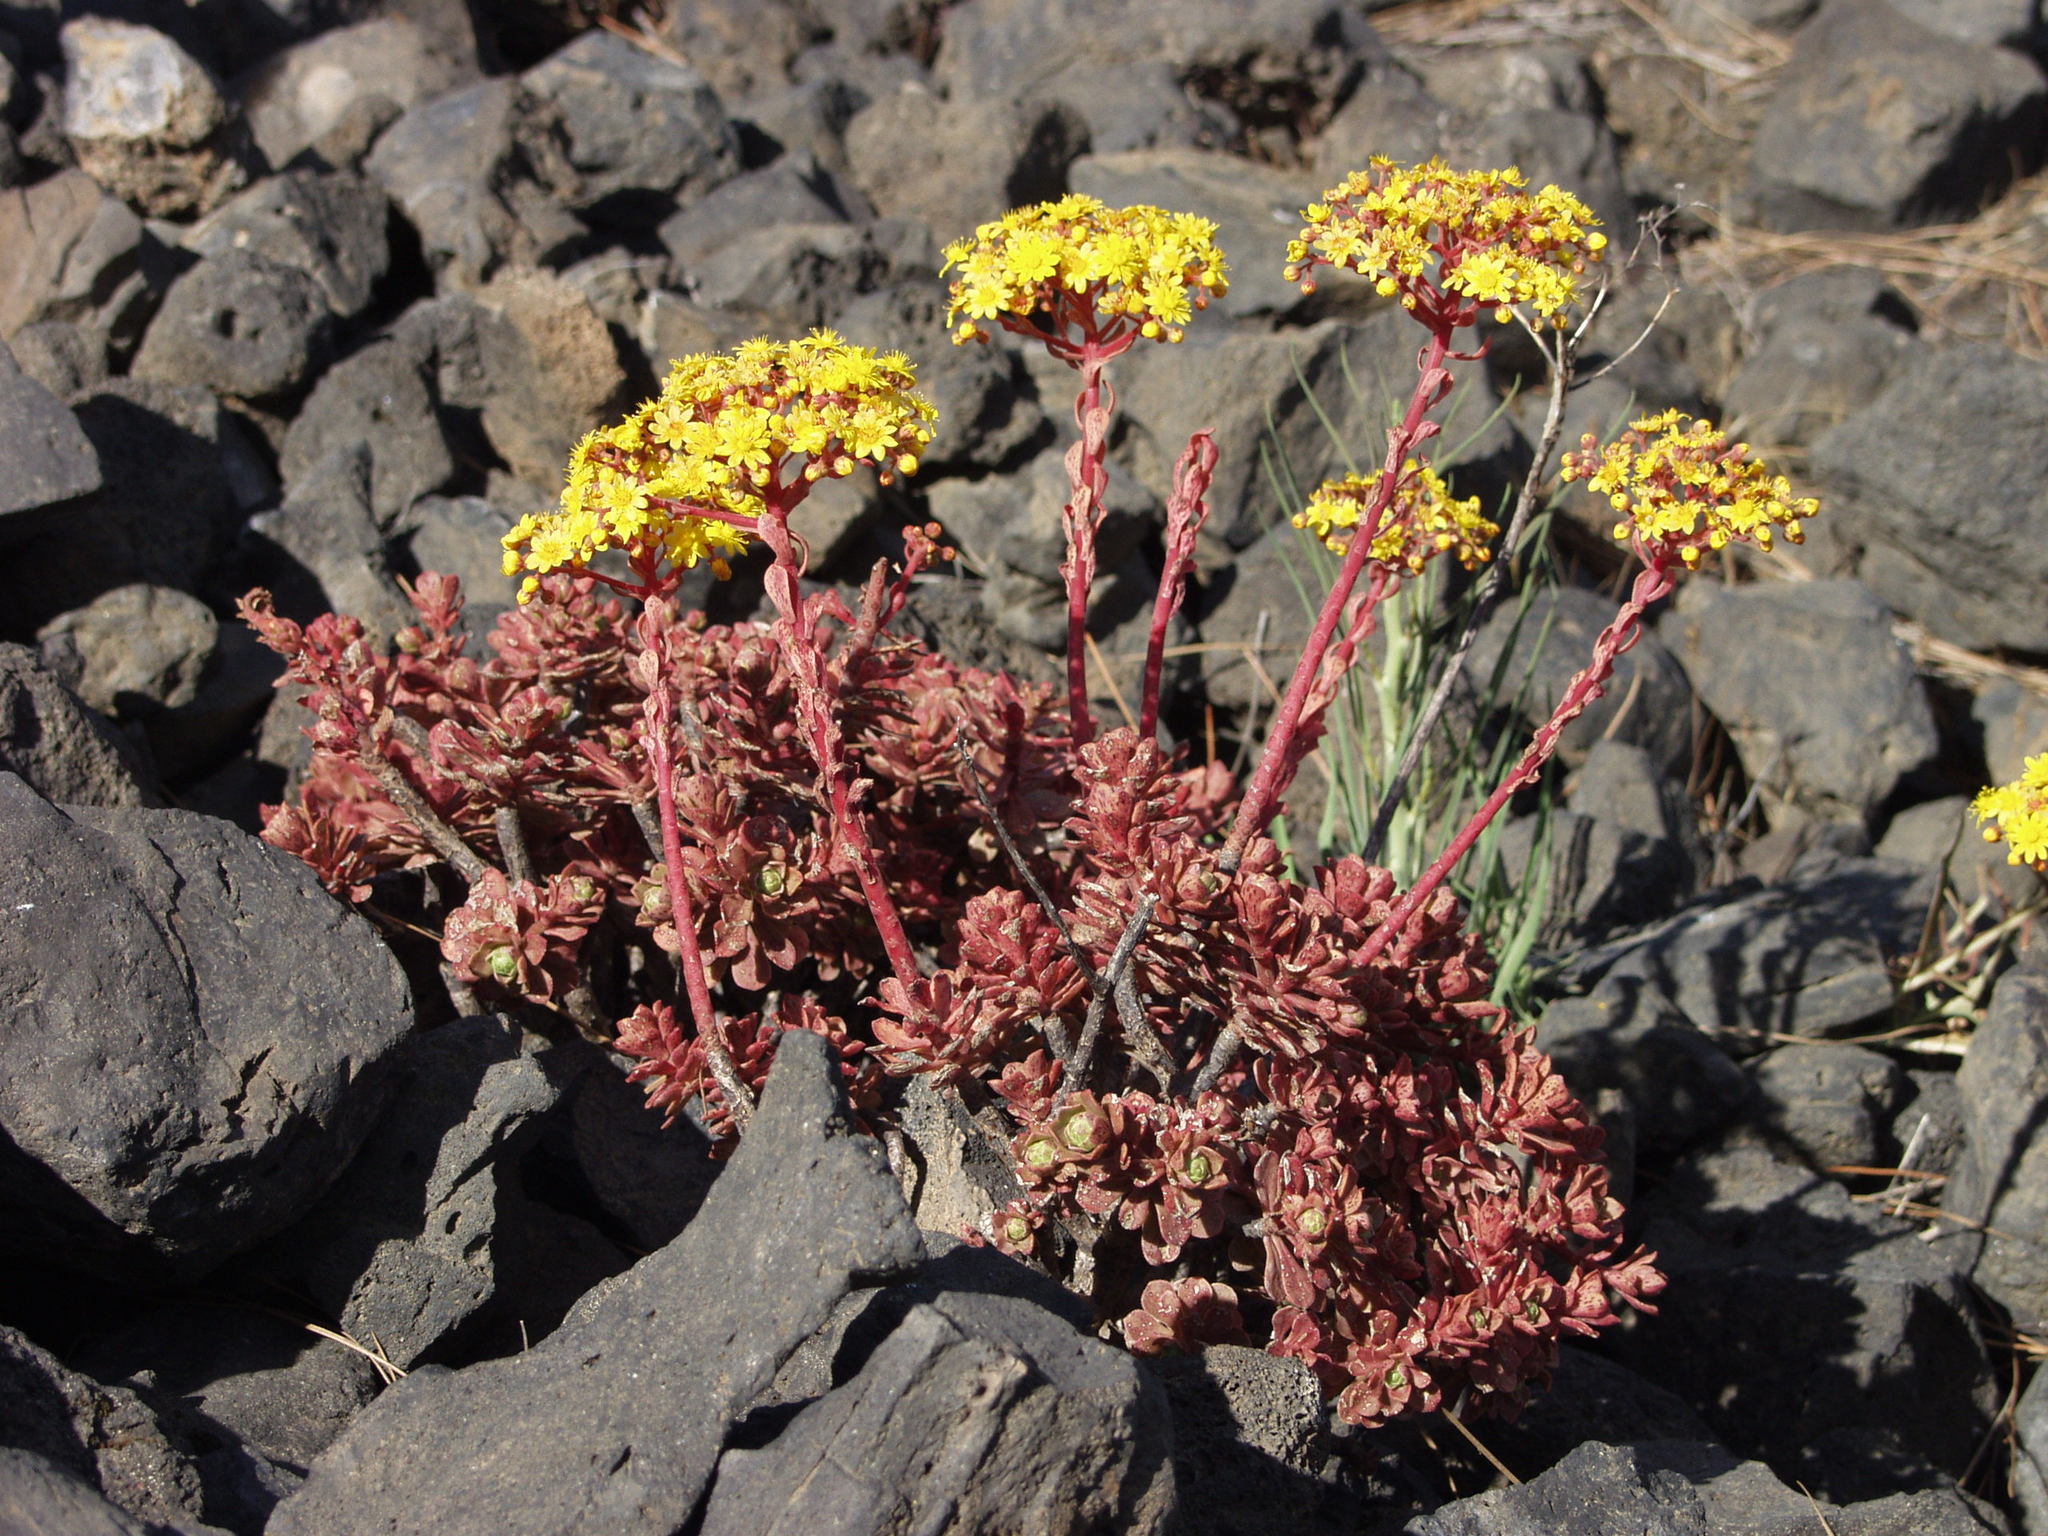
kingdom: Plantae
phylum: Tracheophyta
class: Magnoliopsida
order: Saxifragales
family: Crassulaceae
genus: Aeonium
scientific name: Aeonium spathulatum
